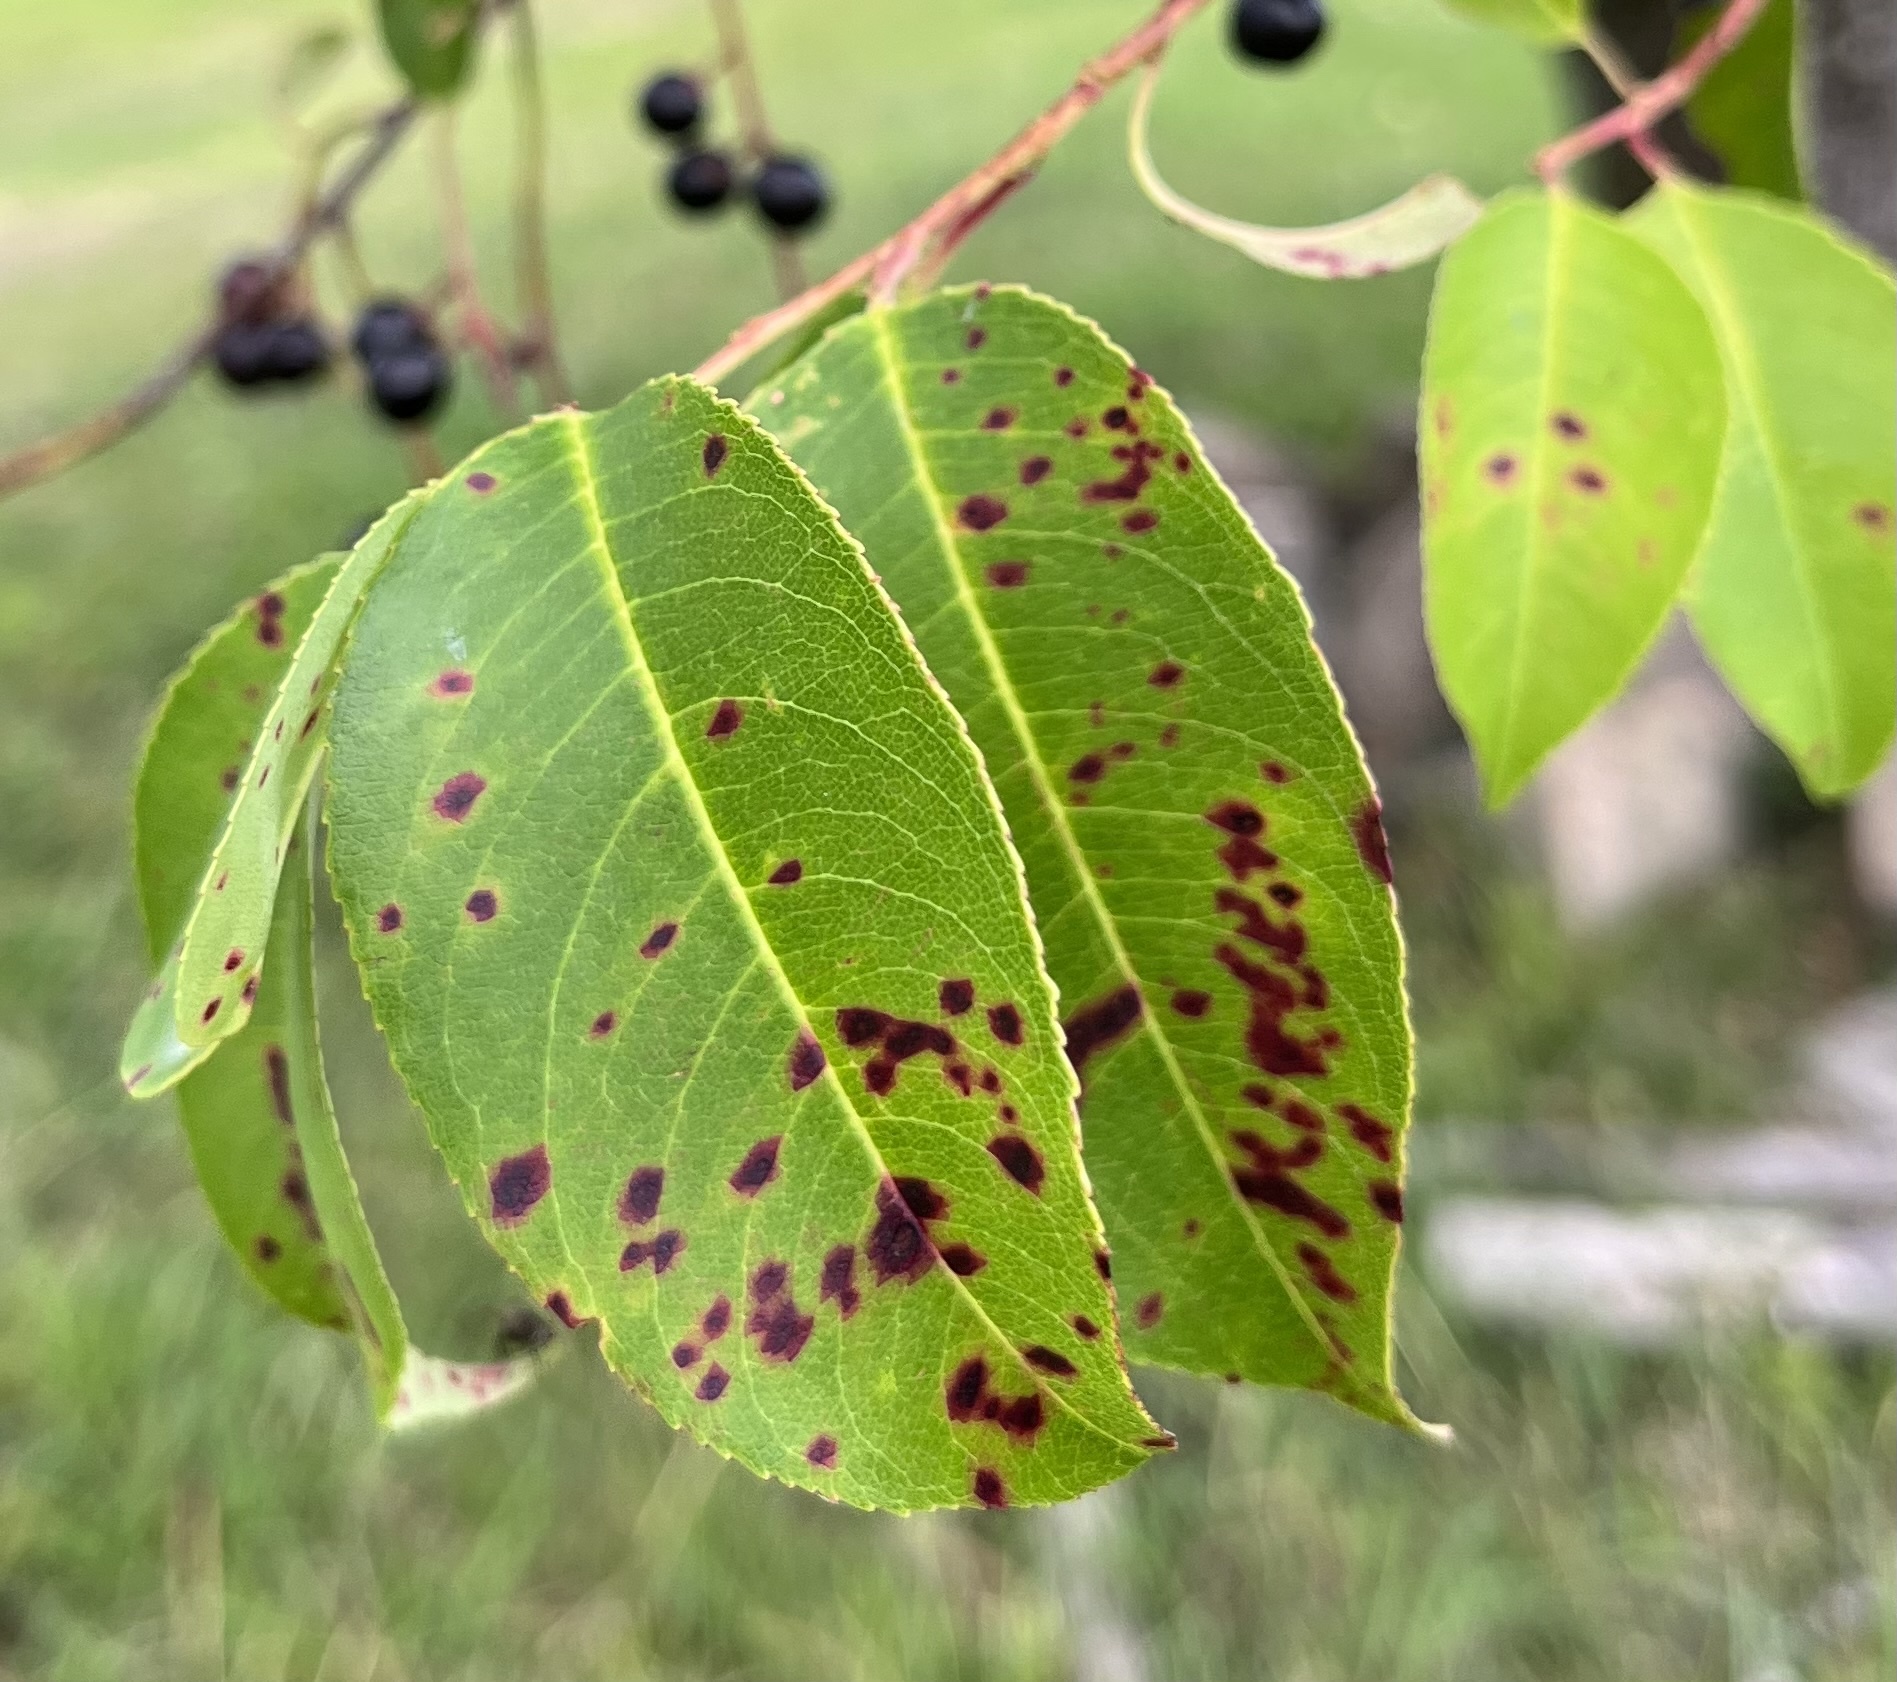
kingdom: Plantae
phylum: Tracheophyta
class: Magnoliopsida
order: Rosales
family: Rosaceae
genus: Prunus
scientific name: Prunus serotina
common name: Black cherry
